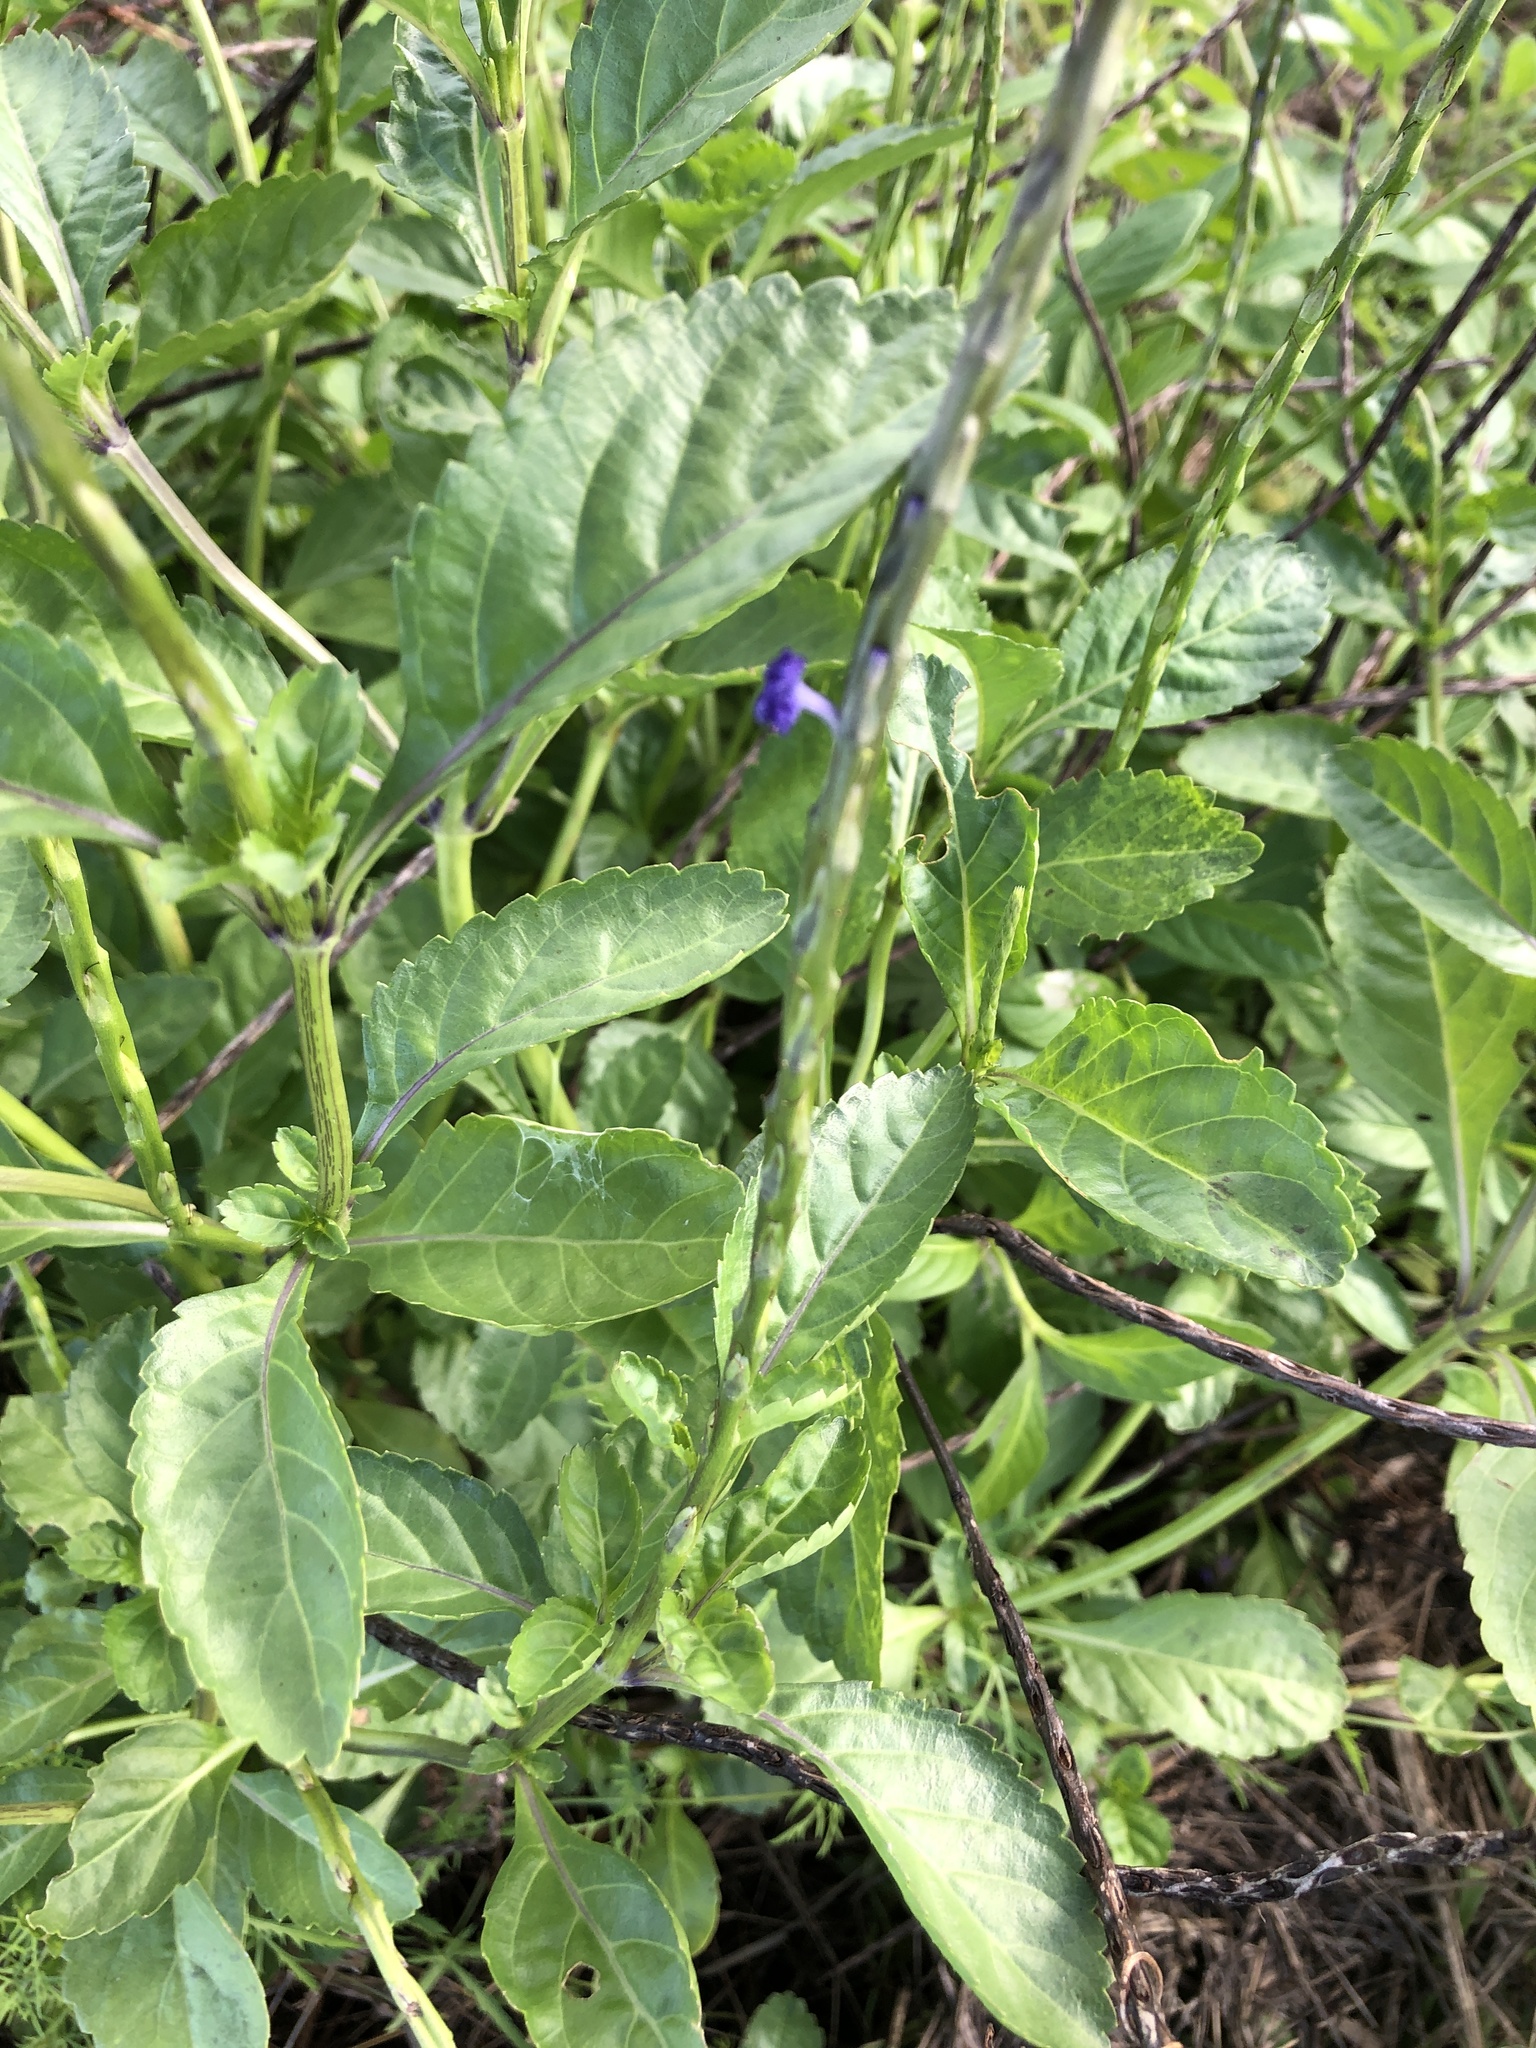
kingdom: Plantae
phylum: Tracheophyta
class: Magnoliopsida
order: Lamiales
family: Verbenaceae
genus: Stachytarpheta
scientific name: Stachytarpheta jamaicensis
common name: Light-blue snakeweed
